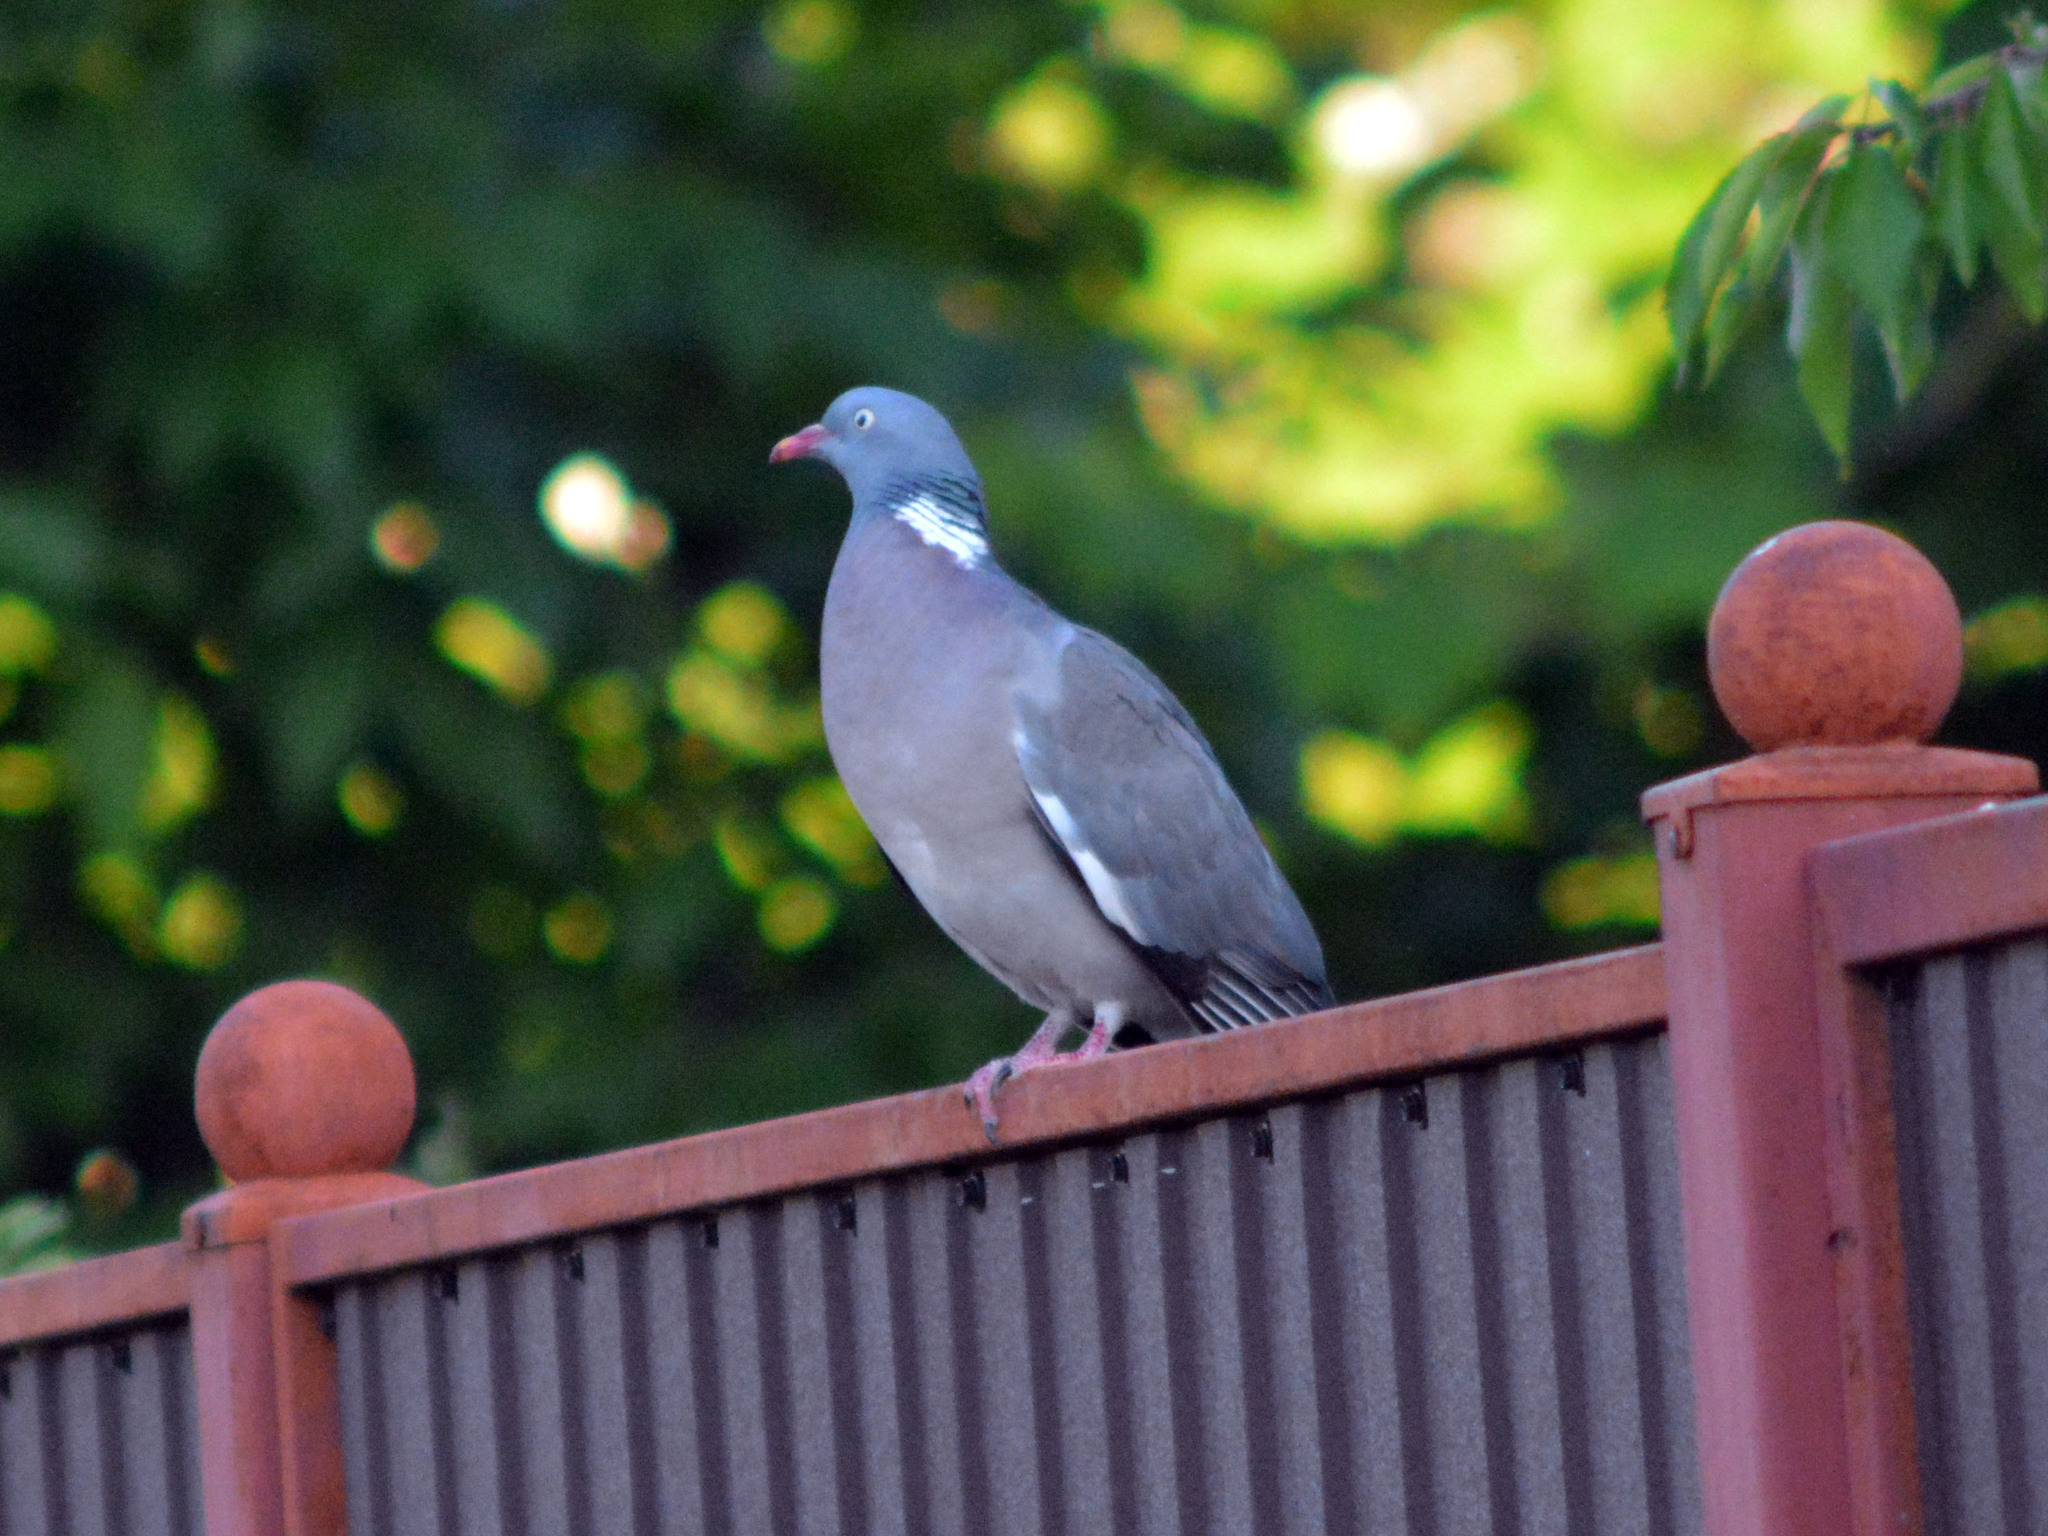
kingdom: Animalia
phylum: Chordata
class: Aves
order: Columbiformes
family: Columbidae
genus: Columba
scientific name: Columba palumbus
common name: Common wood pigeon
